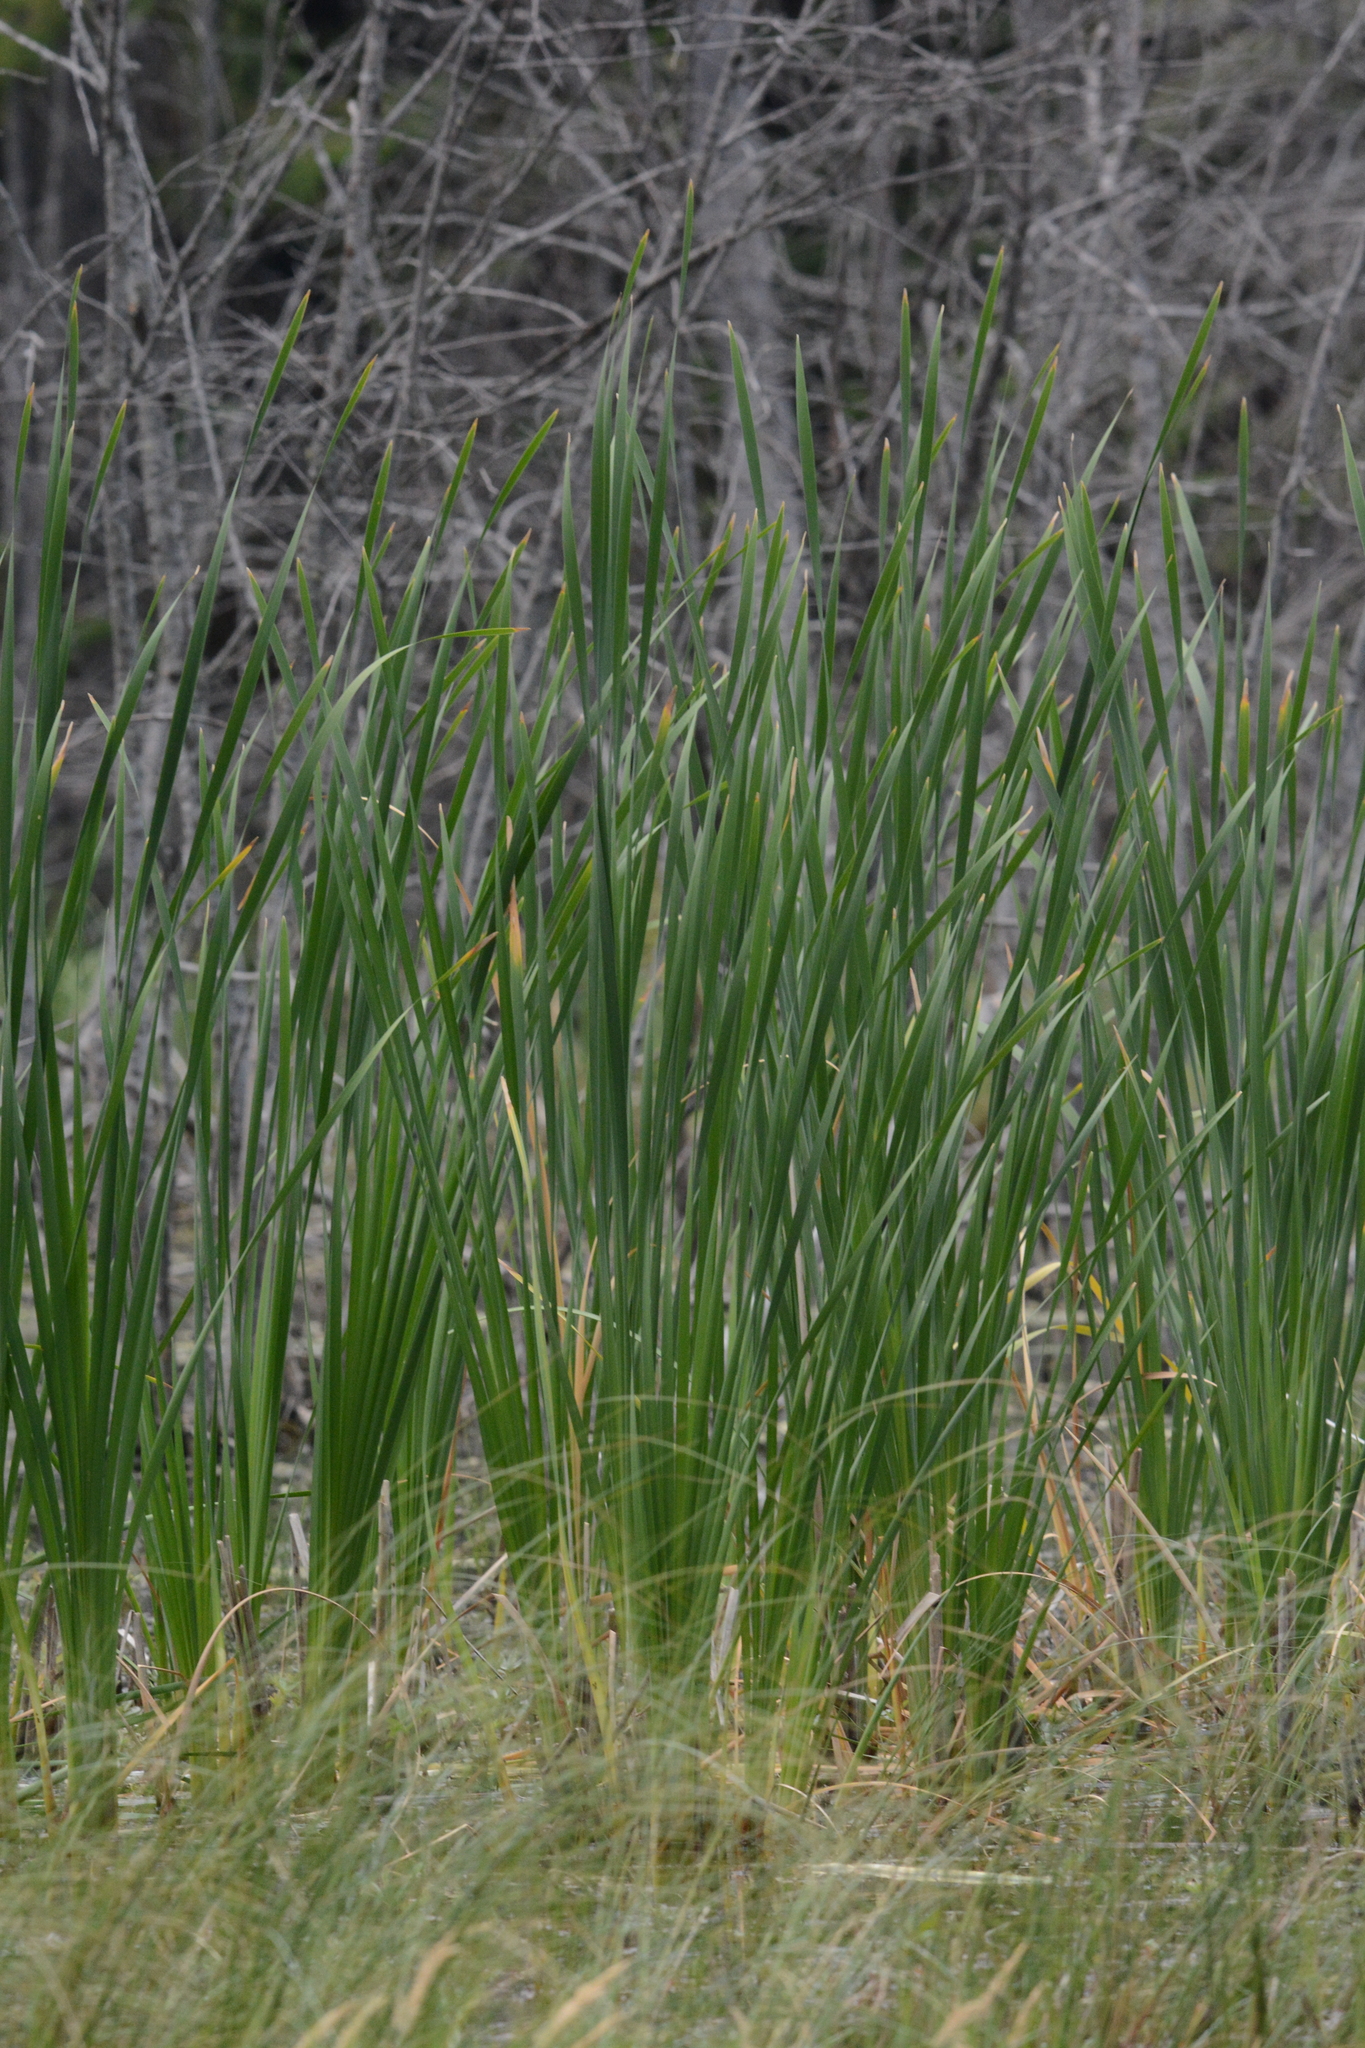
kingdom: Plantae
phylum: Tracheophyta
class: Liliopsida
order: Poales
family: Typhaceae
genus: Typha
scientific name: Typha latifolia
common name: Broadleaf cattail
